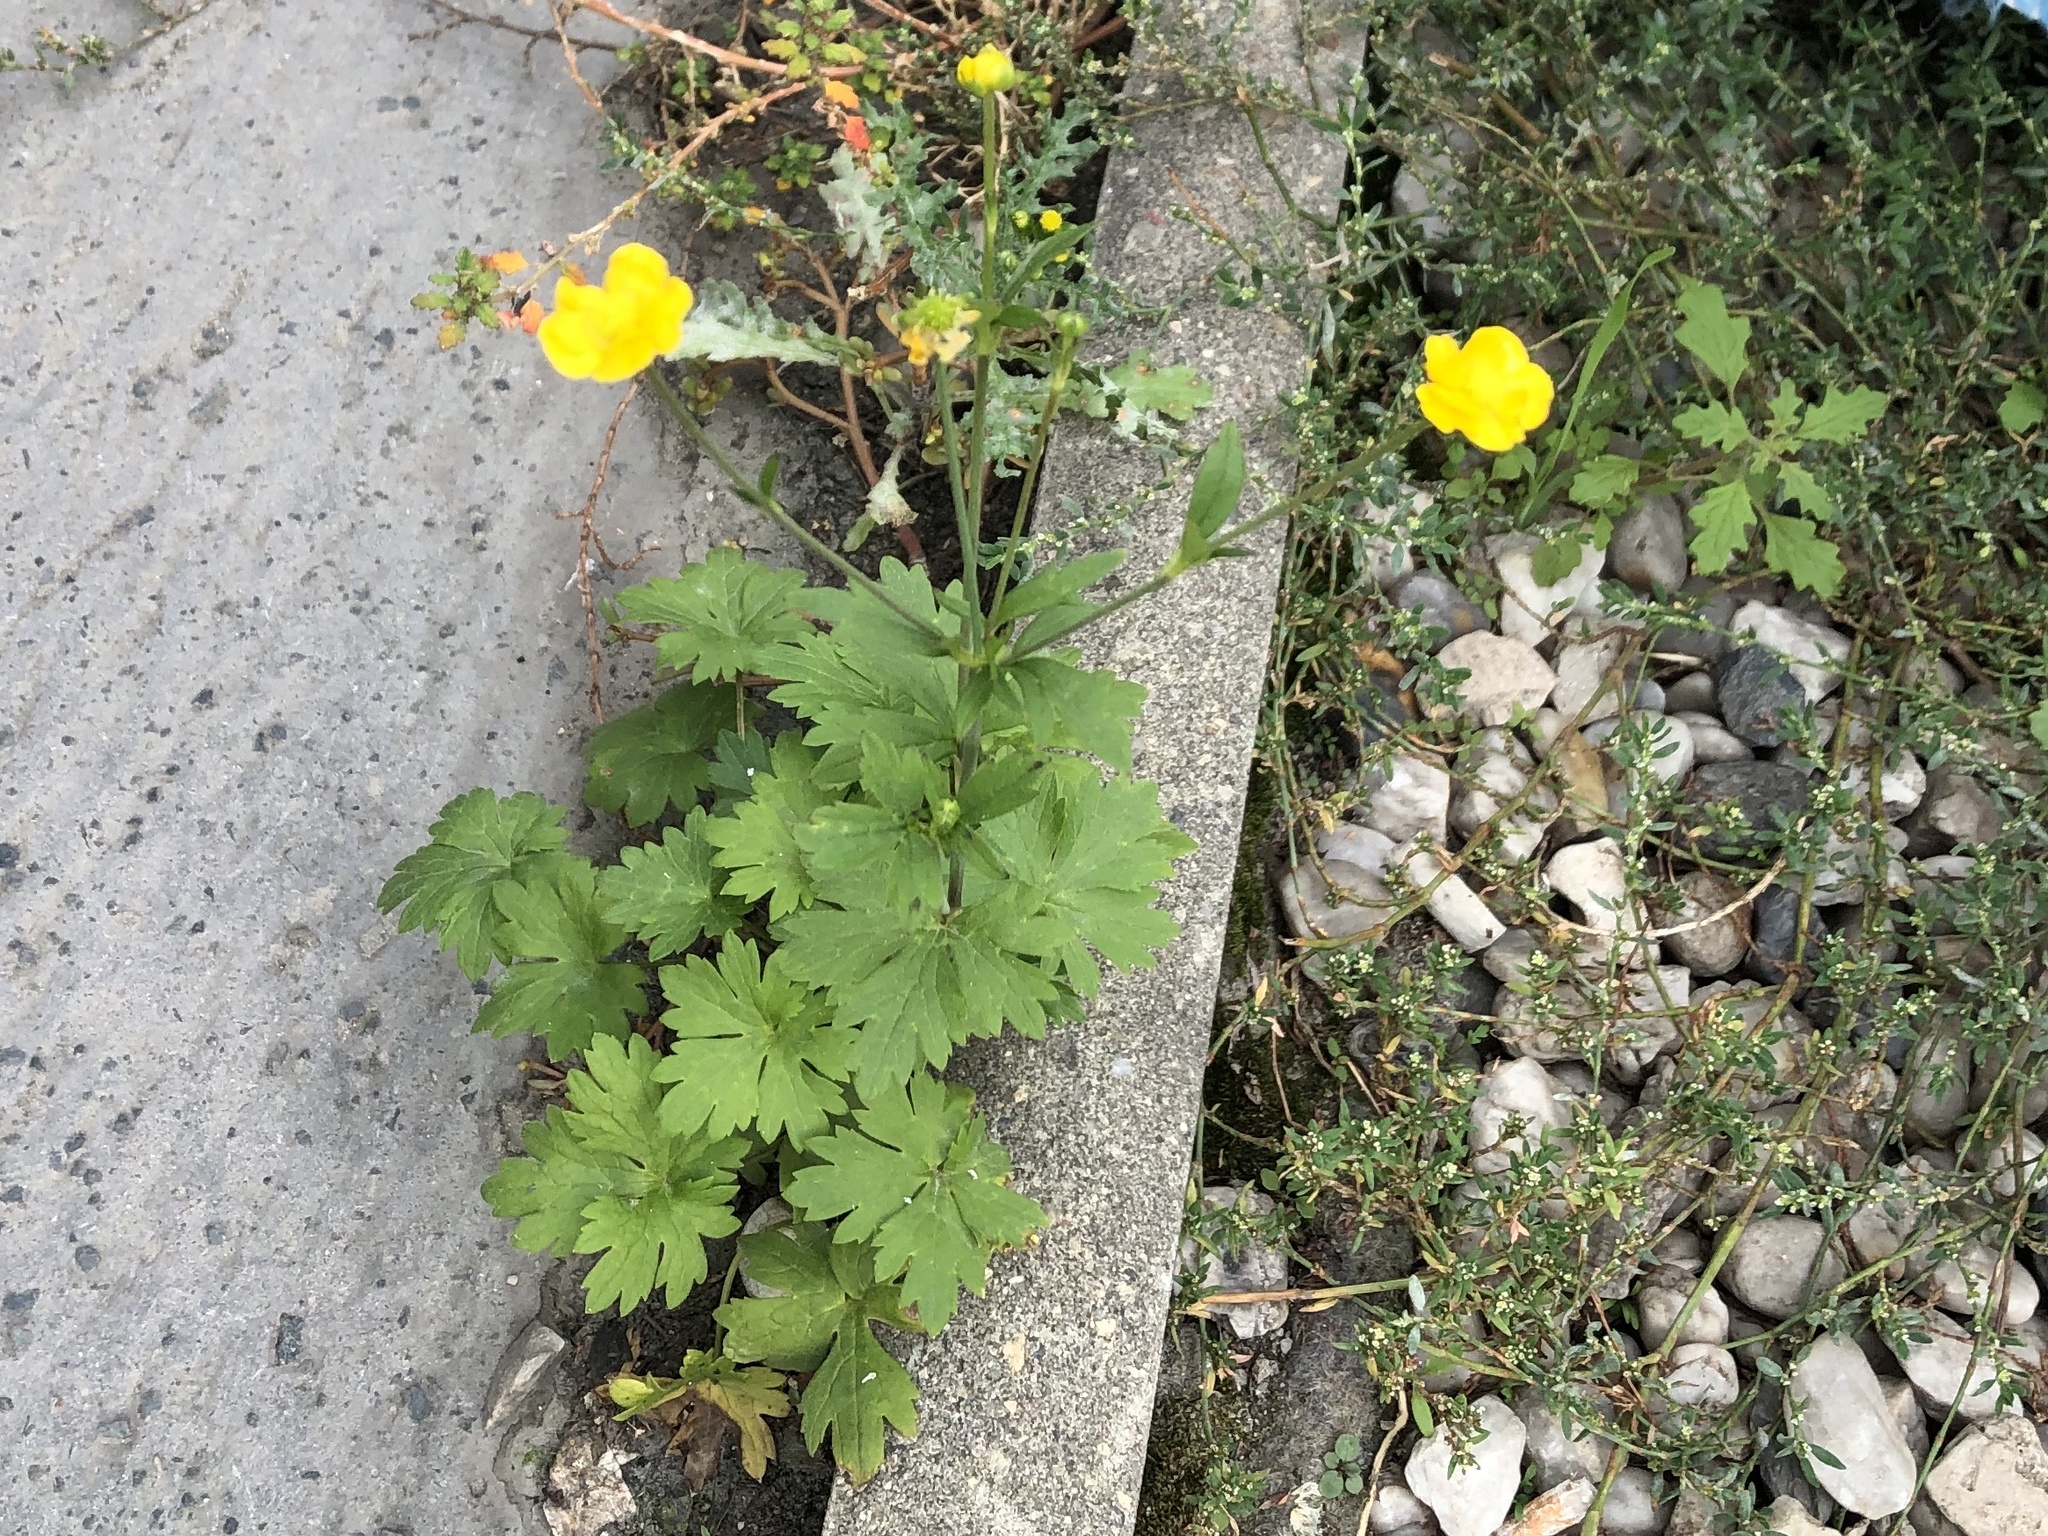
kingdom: Plantae
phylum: Tracheophyta
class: Magnoliopsida
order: Ranunculales
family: Ranunculaceae
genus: Ranunculus
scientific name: Ranunculus repens
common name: Creeping buttercup
